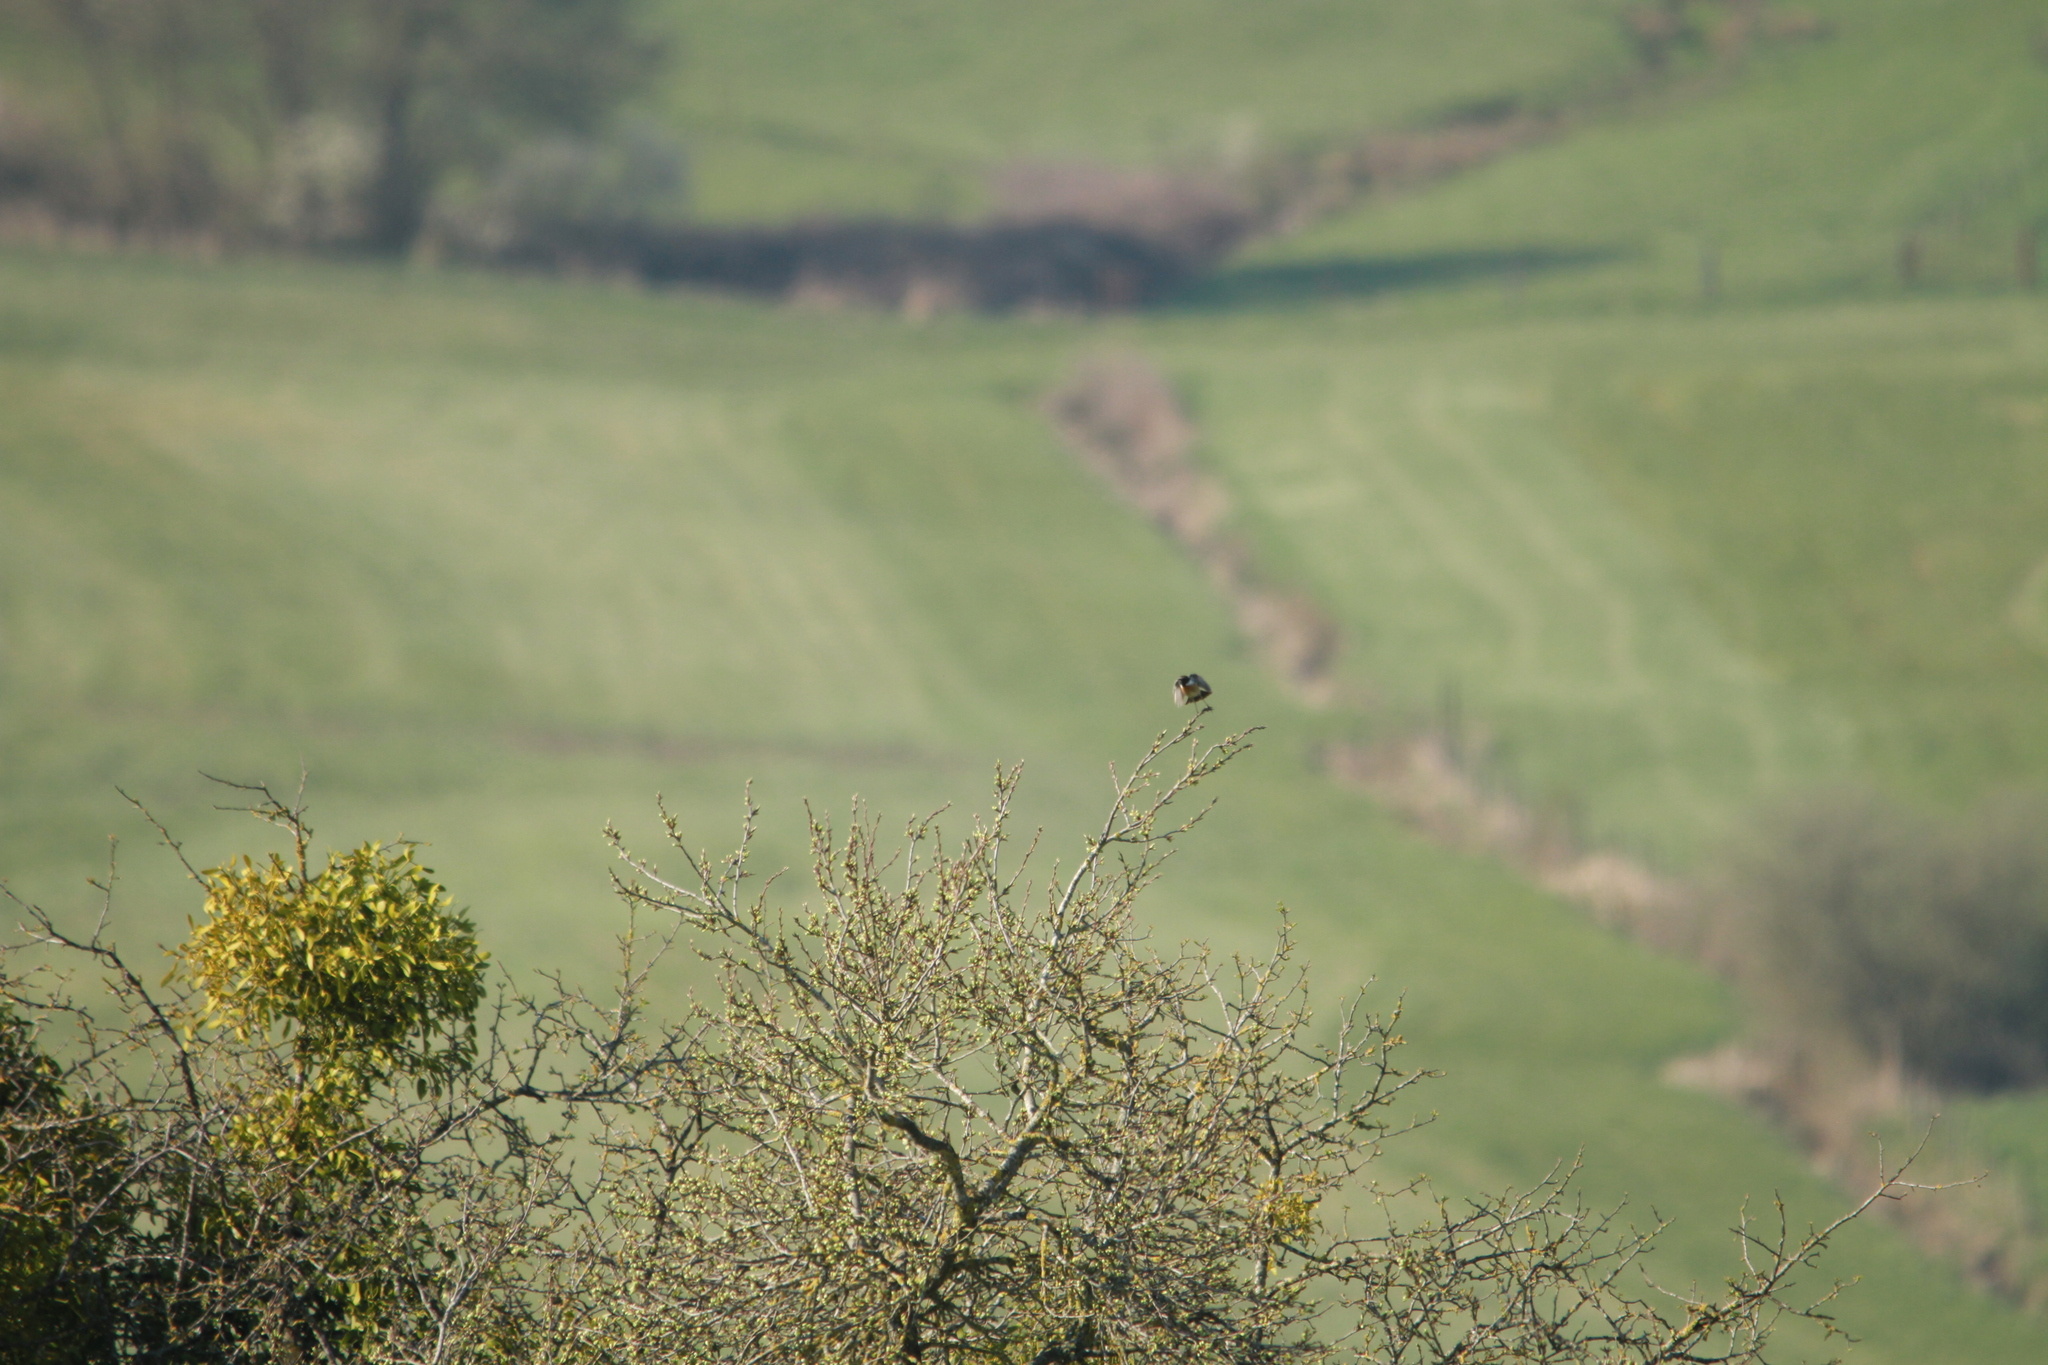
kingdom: Animalia
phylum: Chordata
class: Aves
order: Passeriformes
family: Muscicapidae
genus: Saxicola
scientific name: Saxicola rubicola
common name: European stonechat
